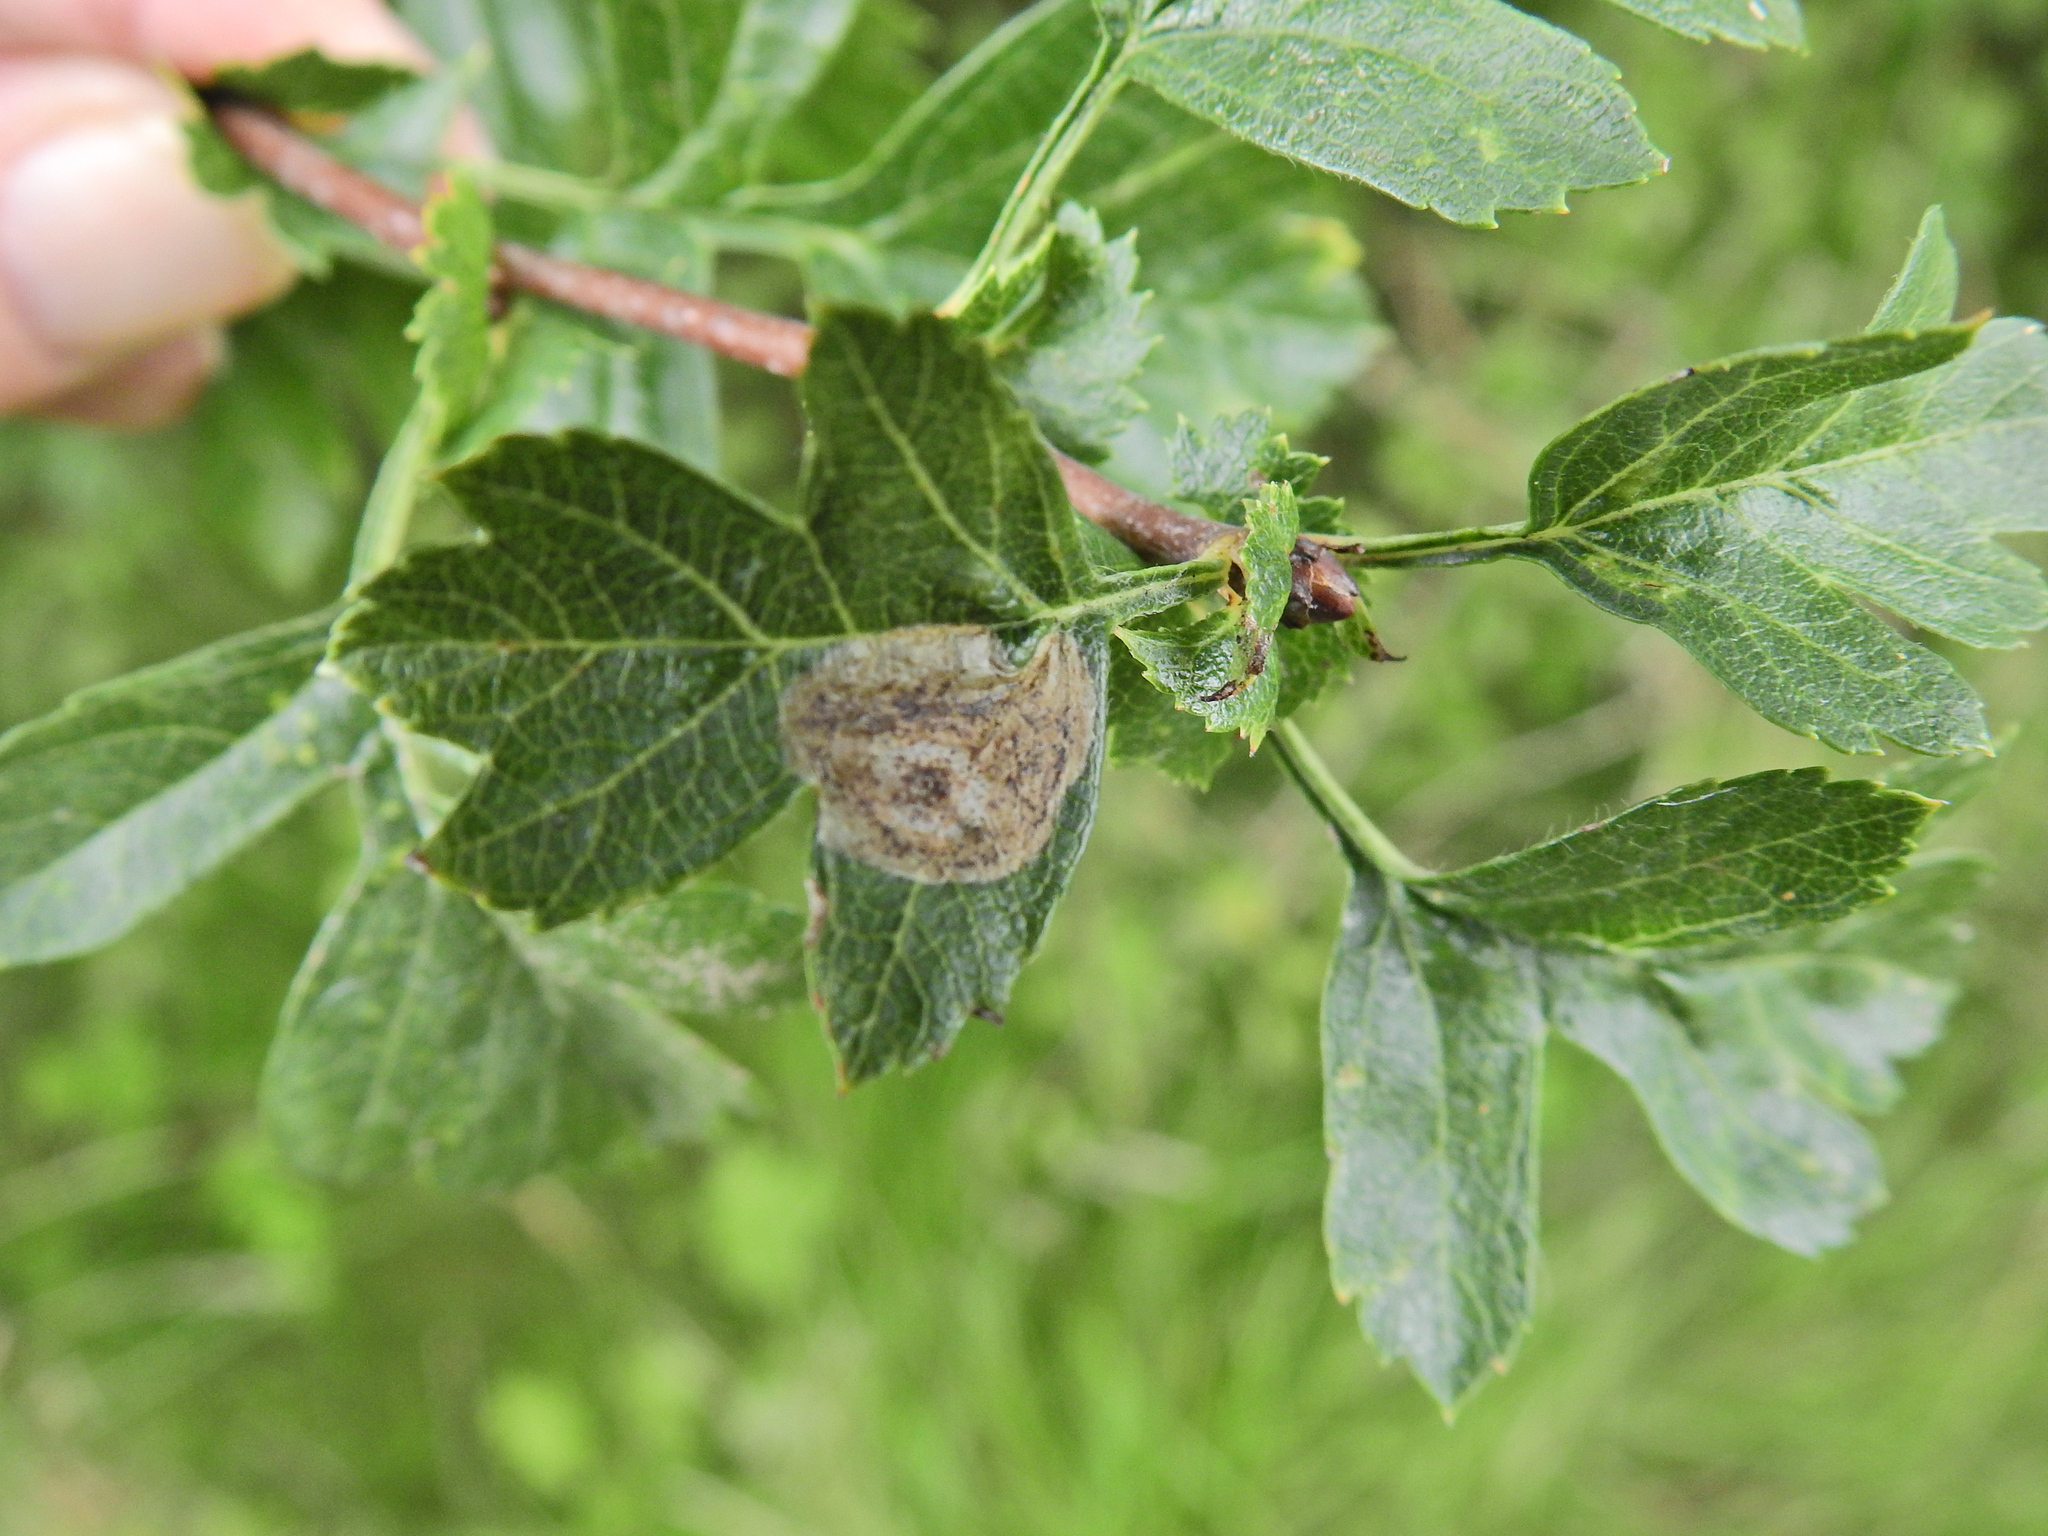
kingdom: Animalia
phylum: Arthropoda
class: Insecta
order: Lepidoptera
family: Lyonetiidae
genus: Leucoptera
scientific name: Leucoptera malifoliella
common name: Pear leaf blister moth
